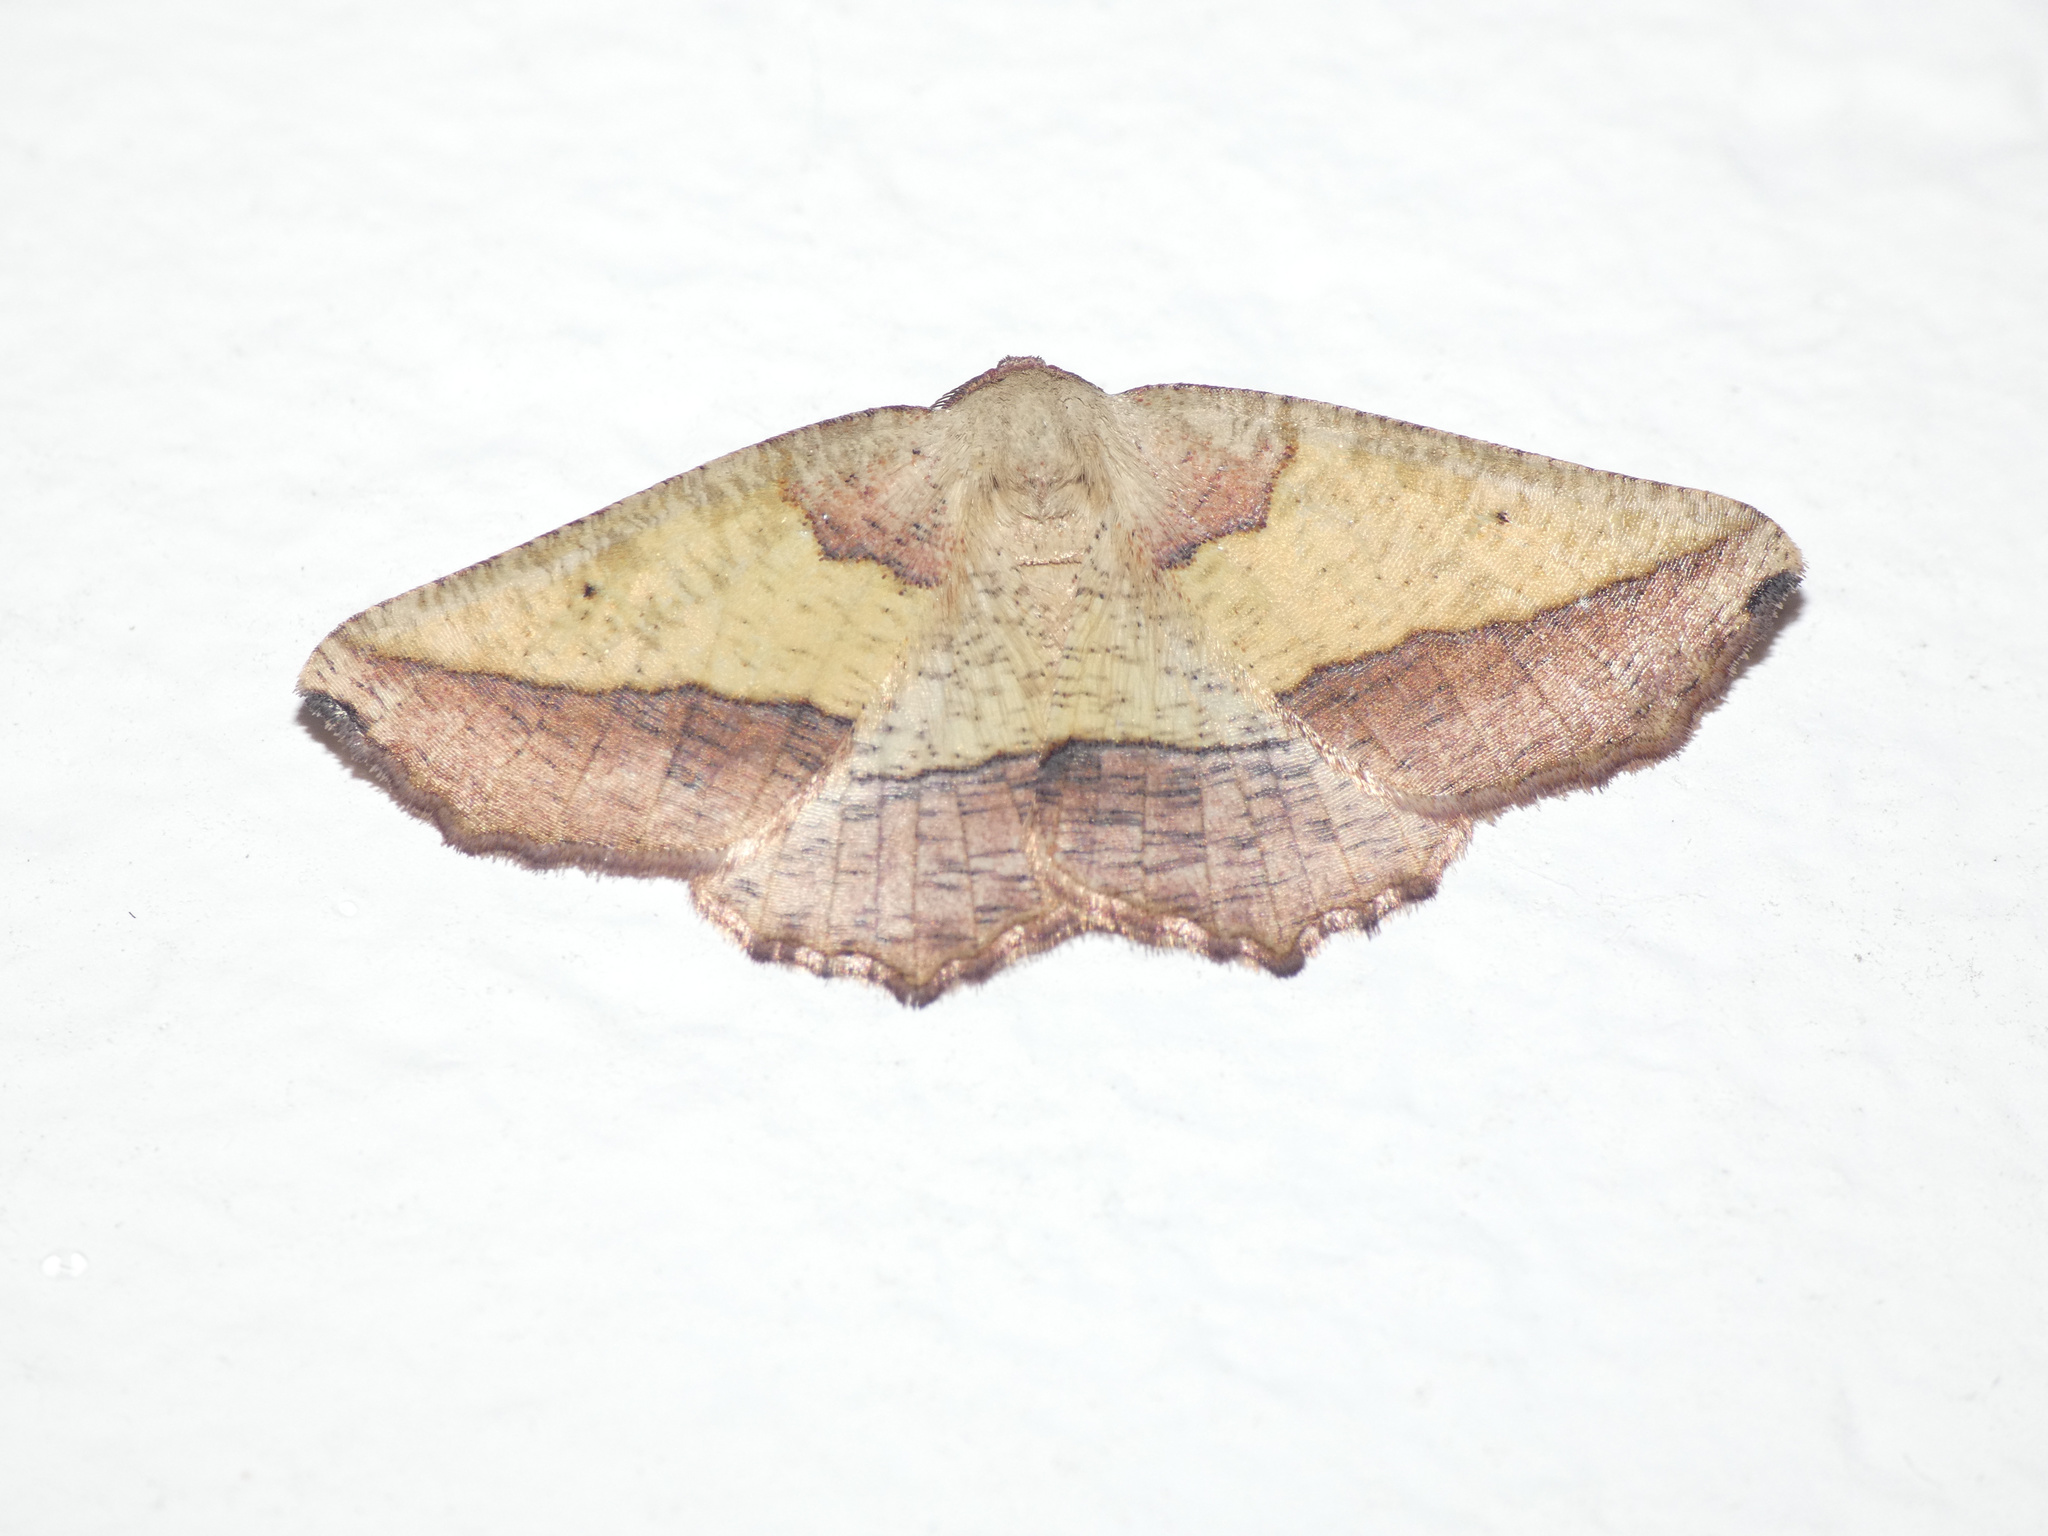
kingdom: Animalia
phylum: Arthropoda
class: Insecta
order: Lepidoptera
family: Geometridae
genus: Drepanogynis
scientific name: Drepanogynis tripartita
